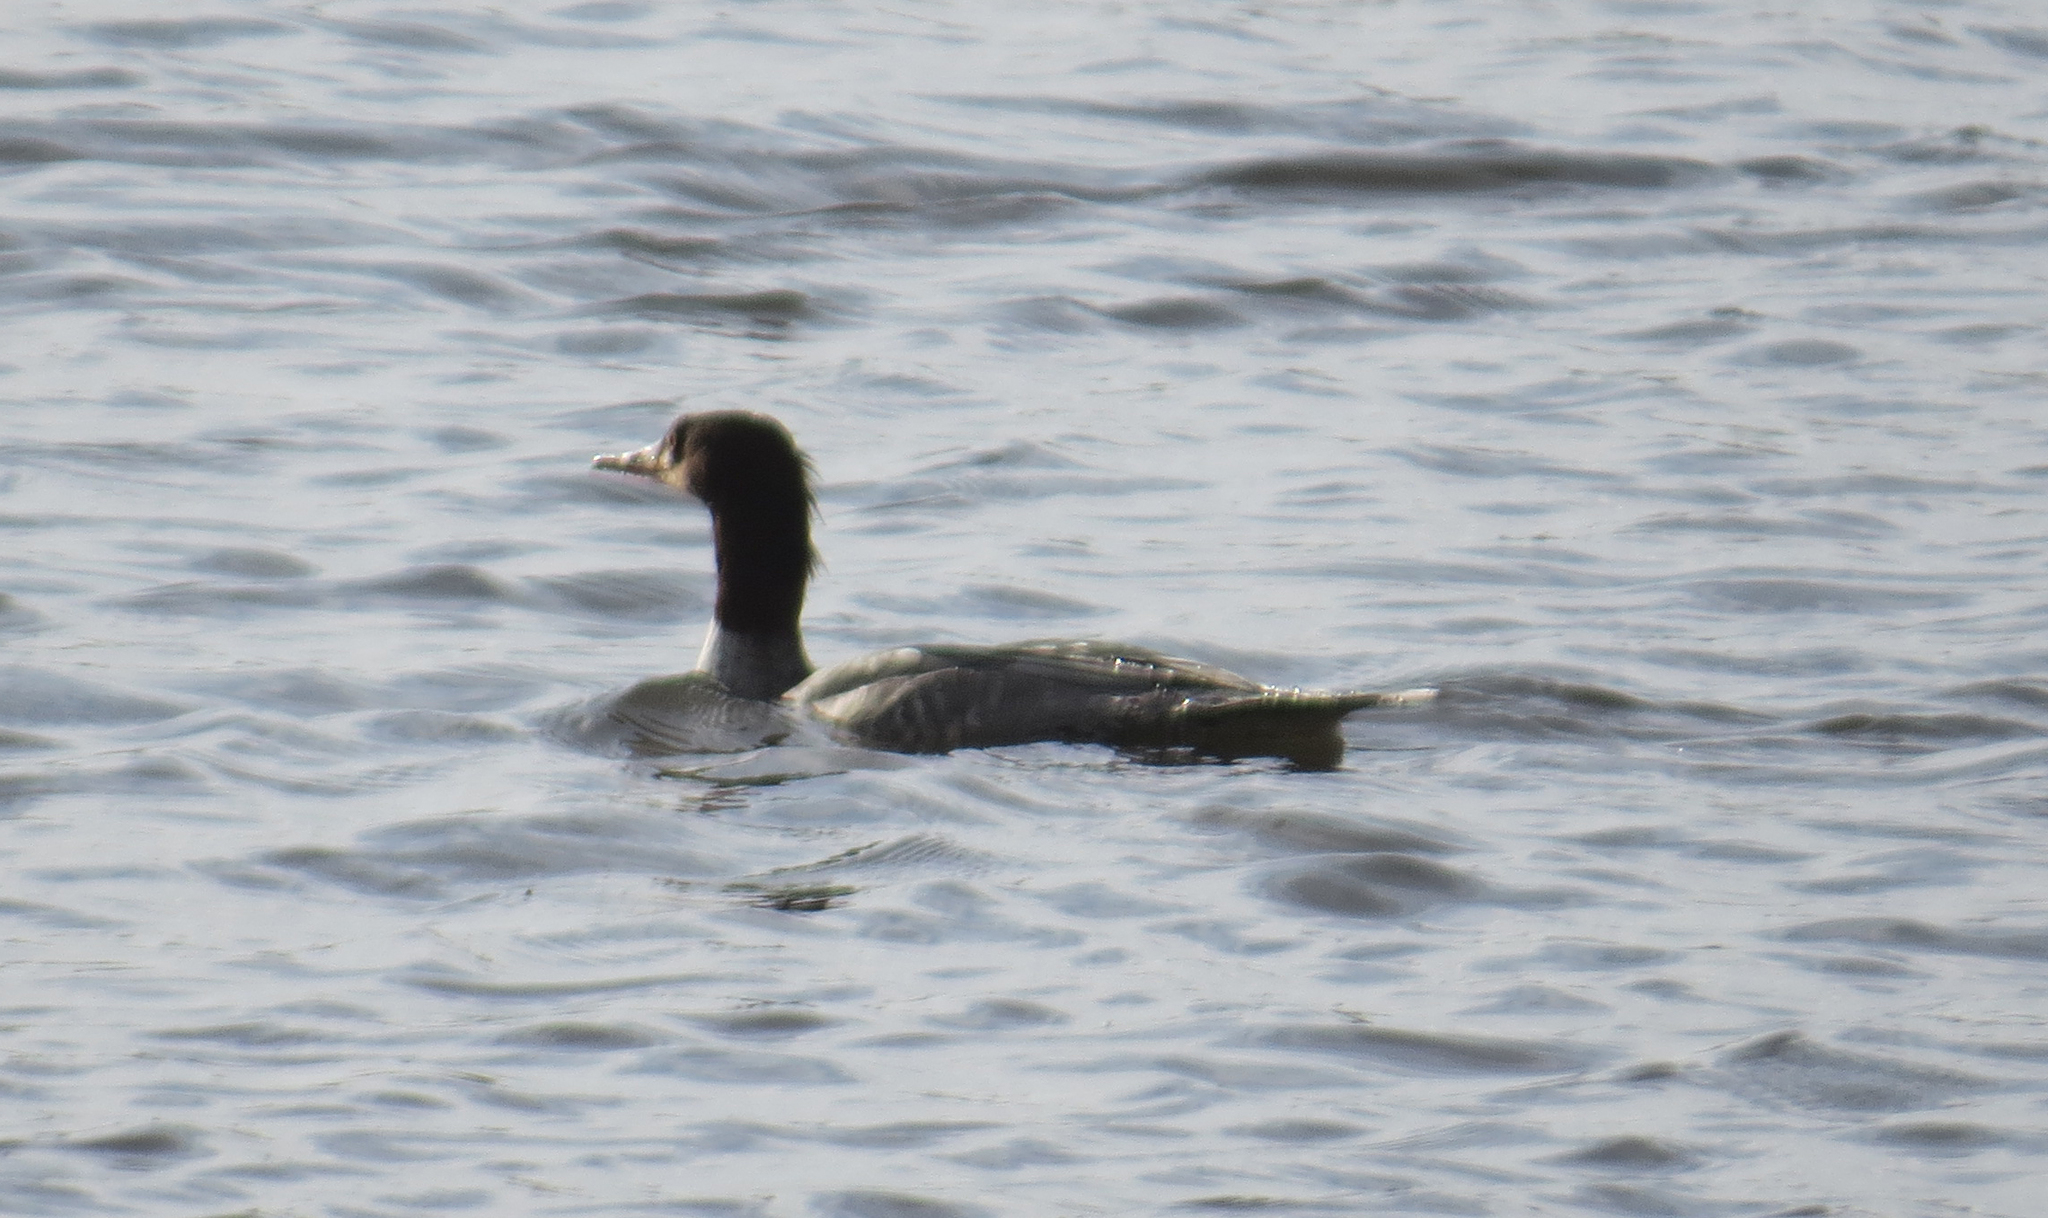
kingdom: Animalia
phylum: Chordata
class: Aves
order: Anseriformes
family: Anatidae
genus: Mergus
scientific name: Mergus merganser
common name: Common merganser
